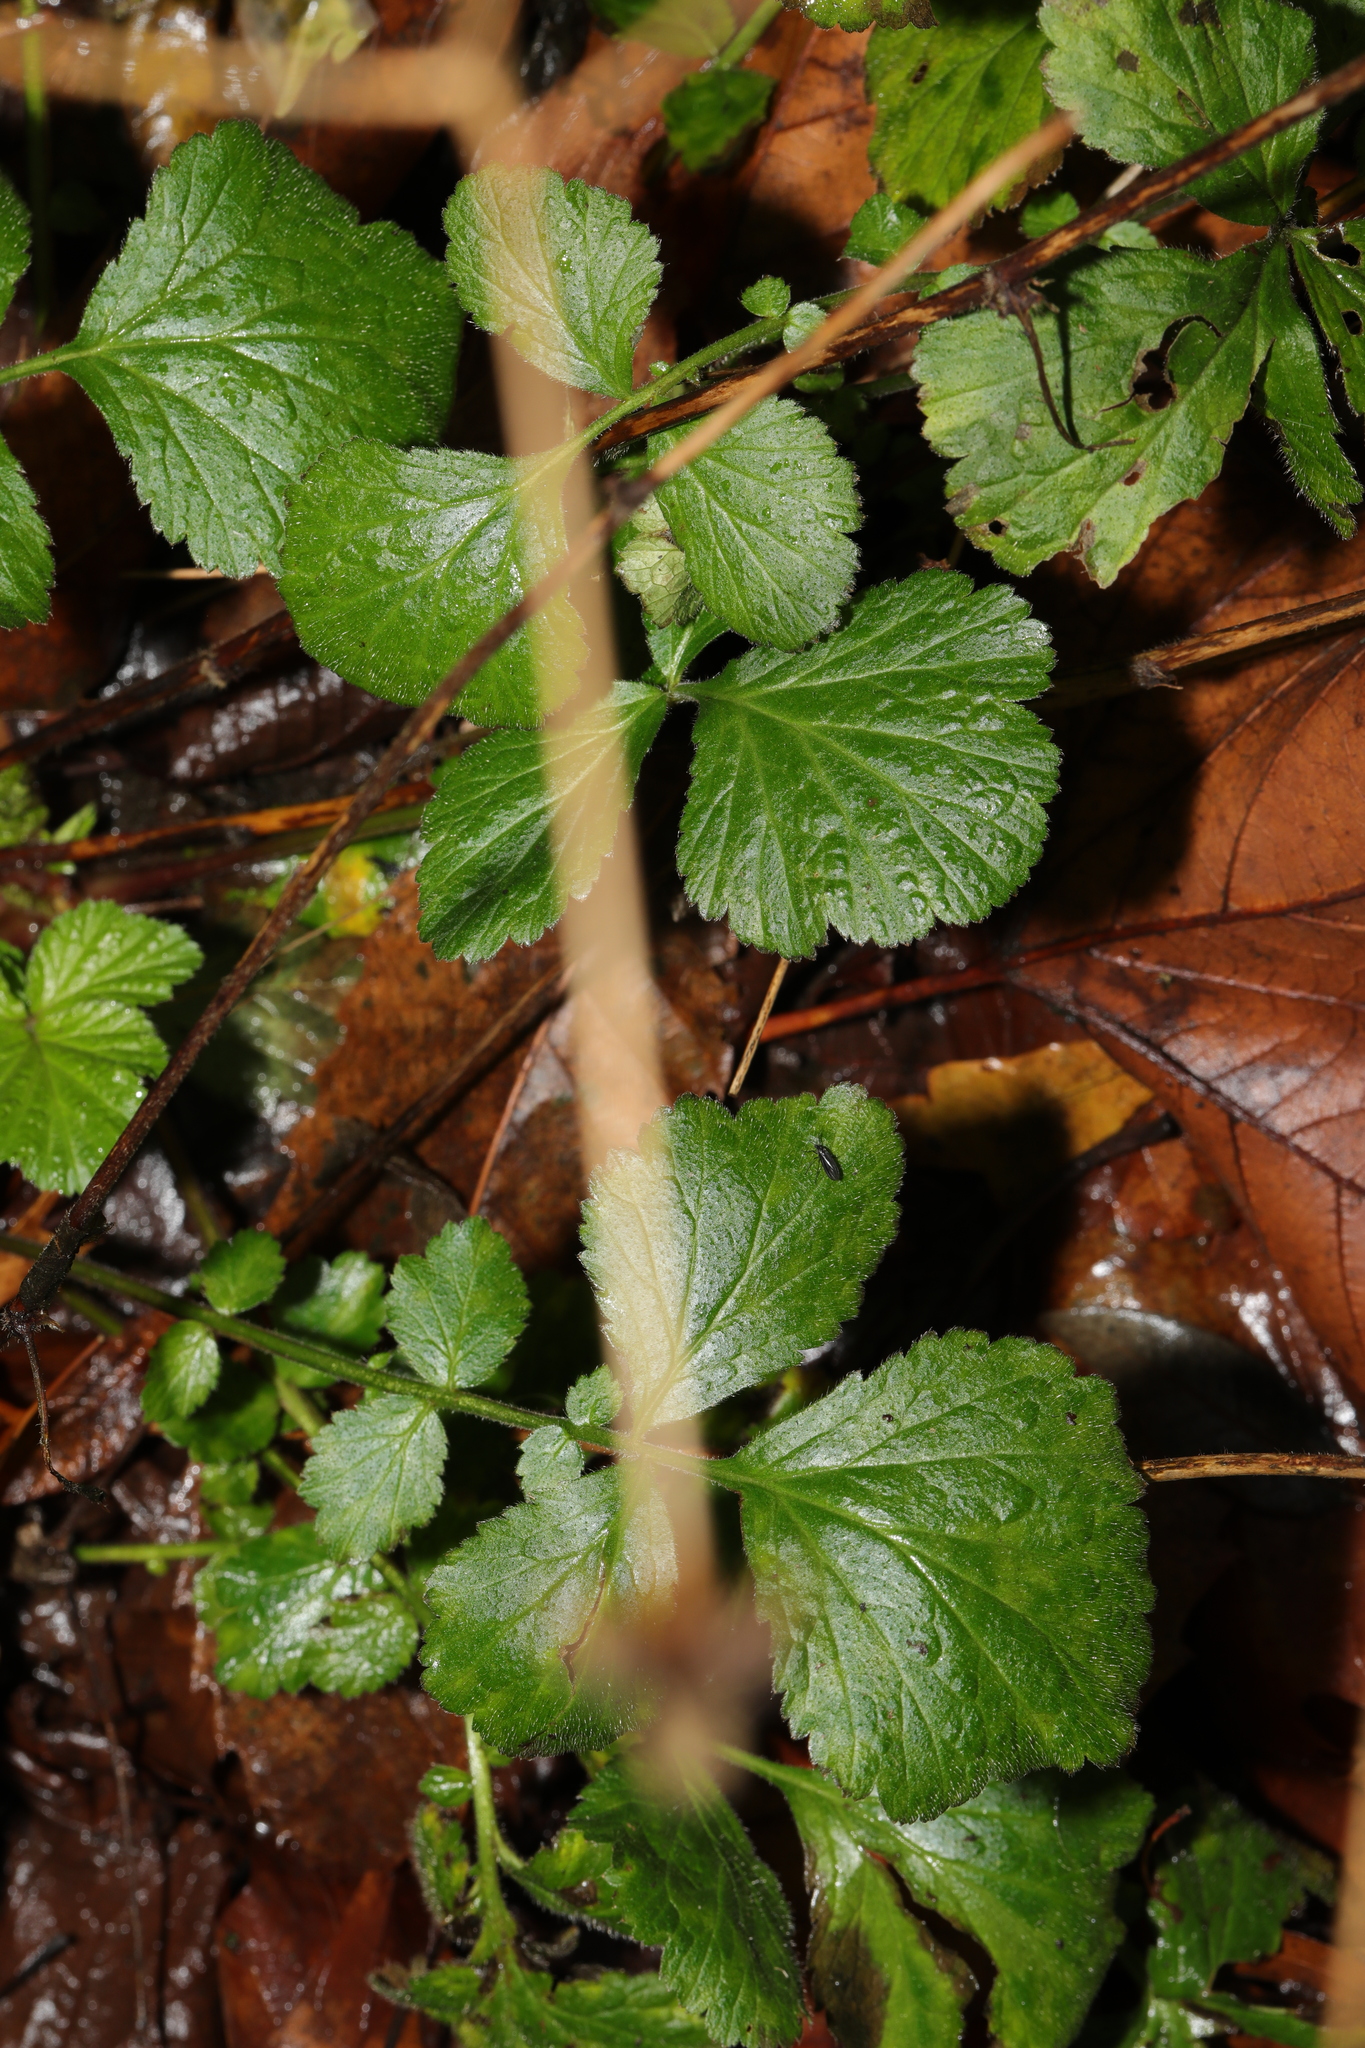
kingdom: Plantae
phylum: Tracheophyta
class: Magnoliopsida
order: Rosales
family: Rosaceae
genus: Geum
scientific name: Geum urbanum
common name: Wood avens
